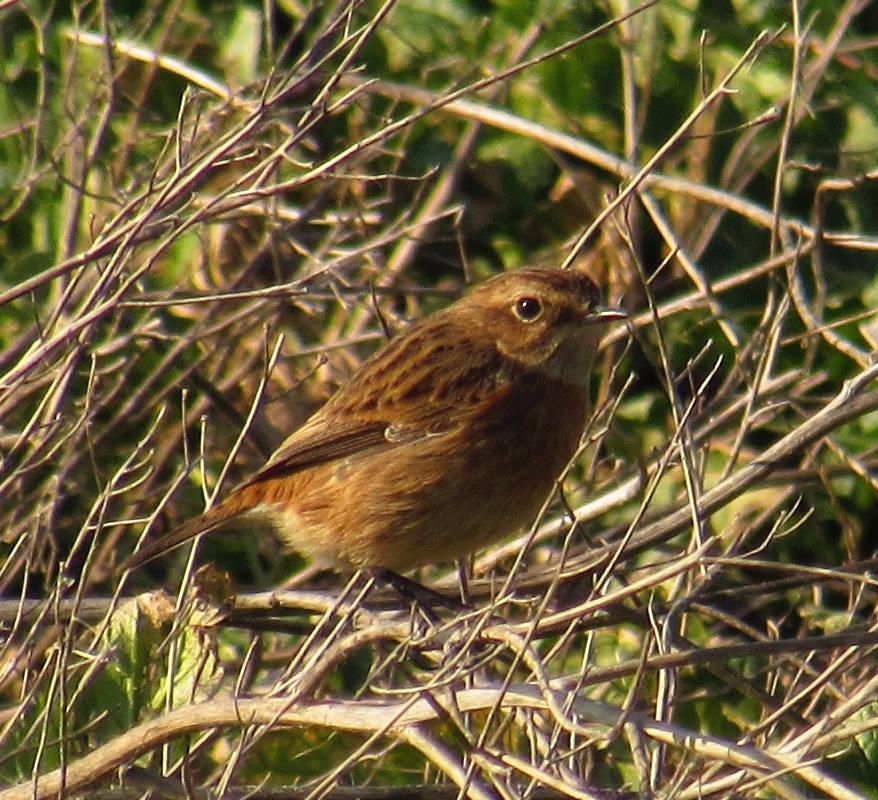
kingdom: Animalia
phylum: Chordata
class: Aves
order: Passeriformes
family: Muscicapidae
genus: Saxicola
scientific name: Saxicola rubicola
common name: European stonechat
